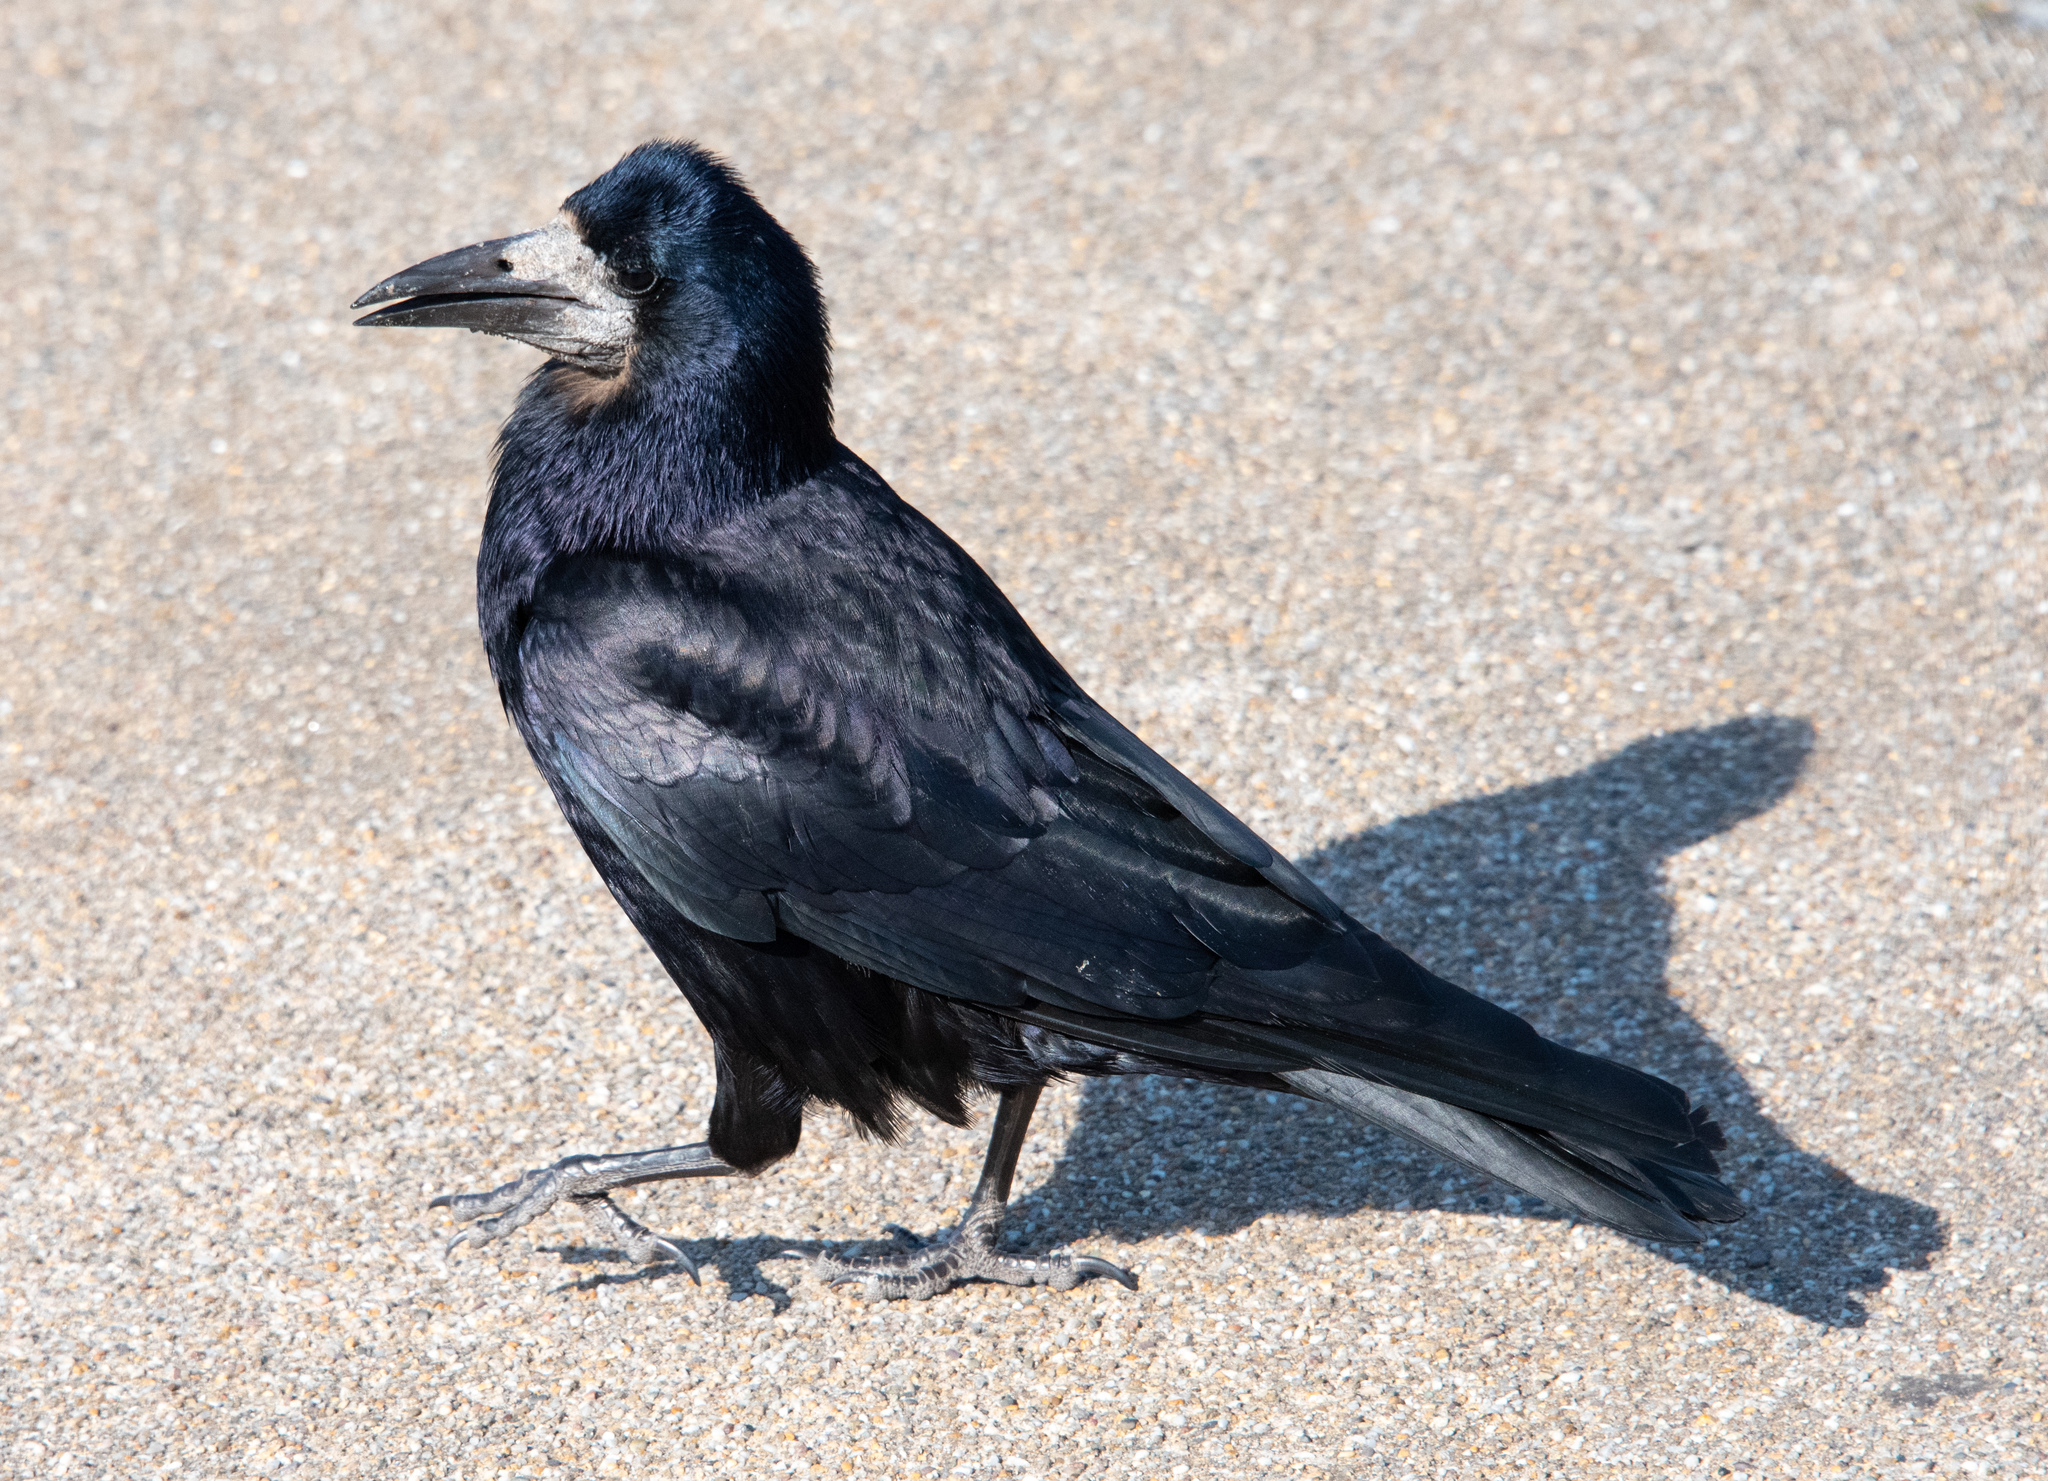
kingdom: Animalia
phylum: Chordata
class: Aves
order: Passeriformes
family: Corvidae
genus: Corvus
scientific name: Corvus frugilegus
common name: Rook
